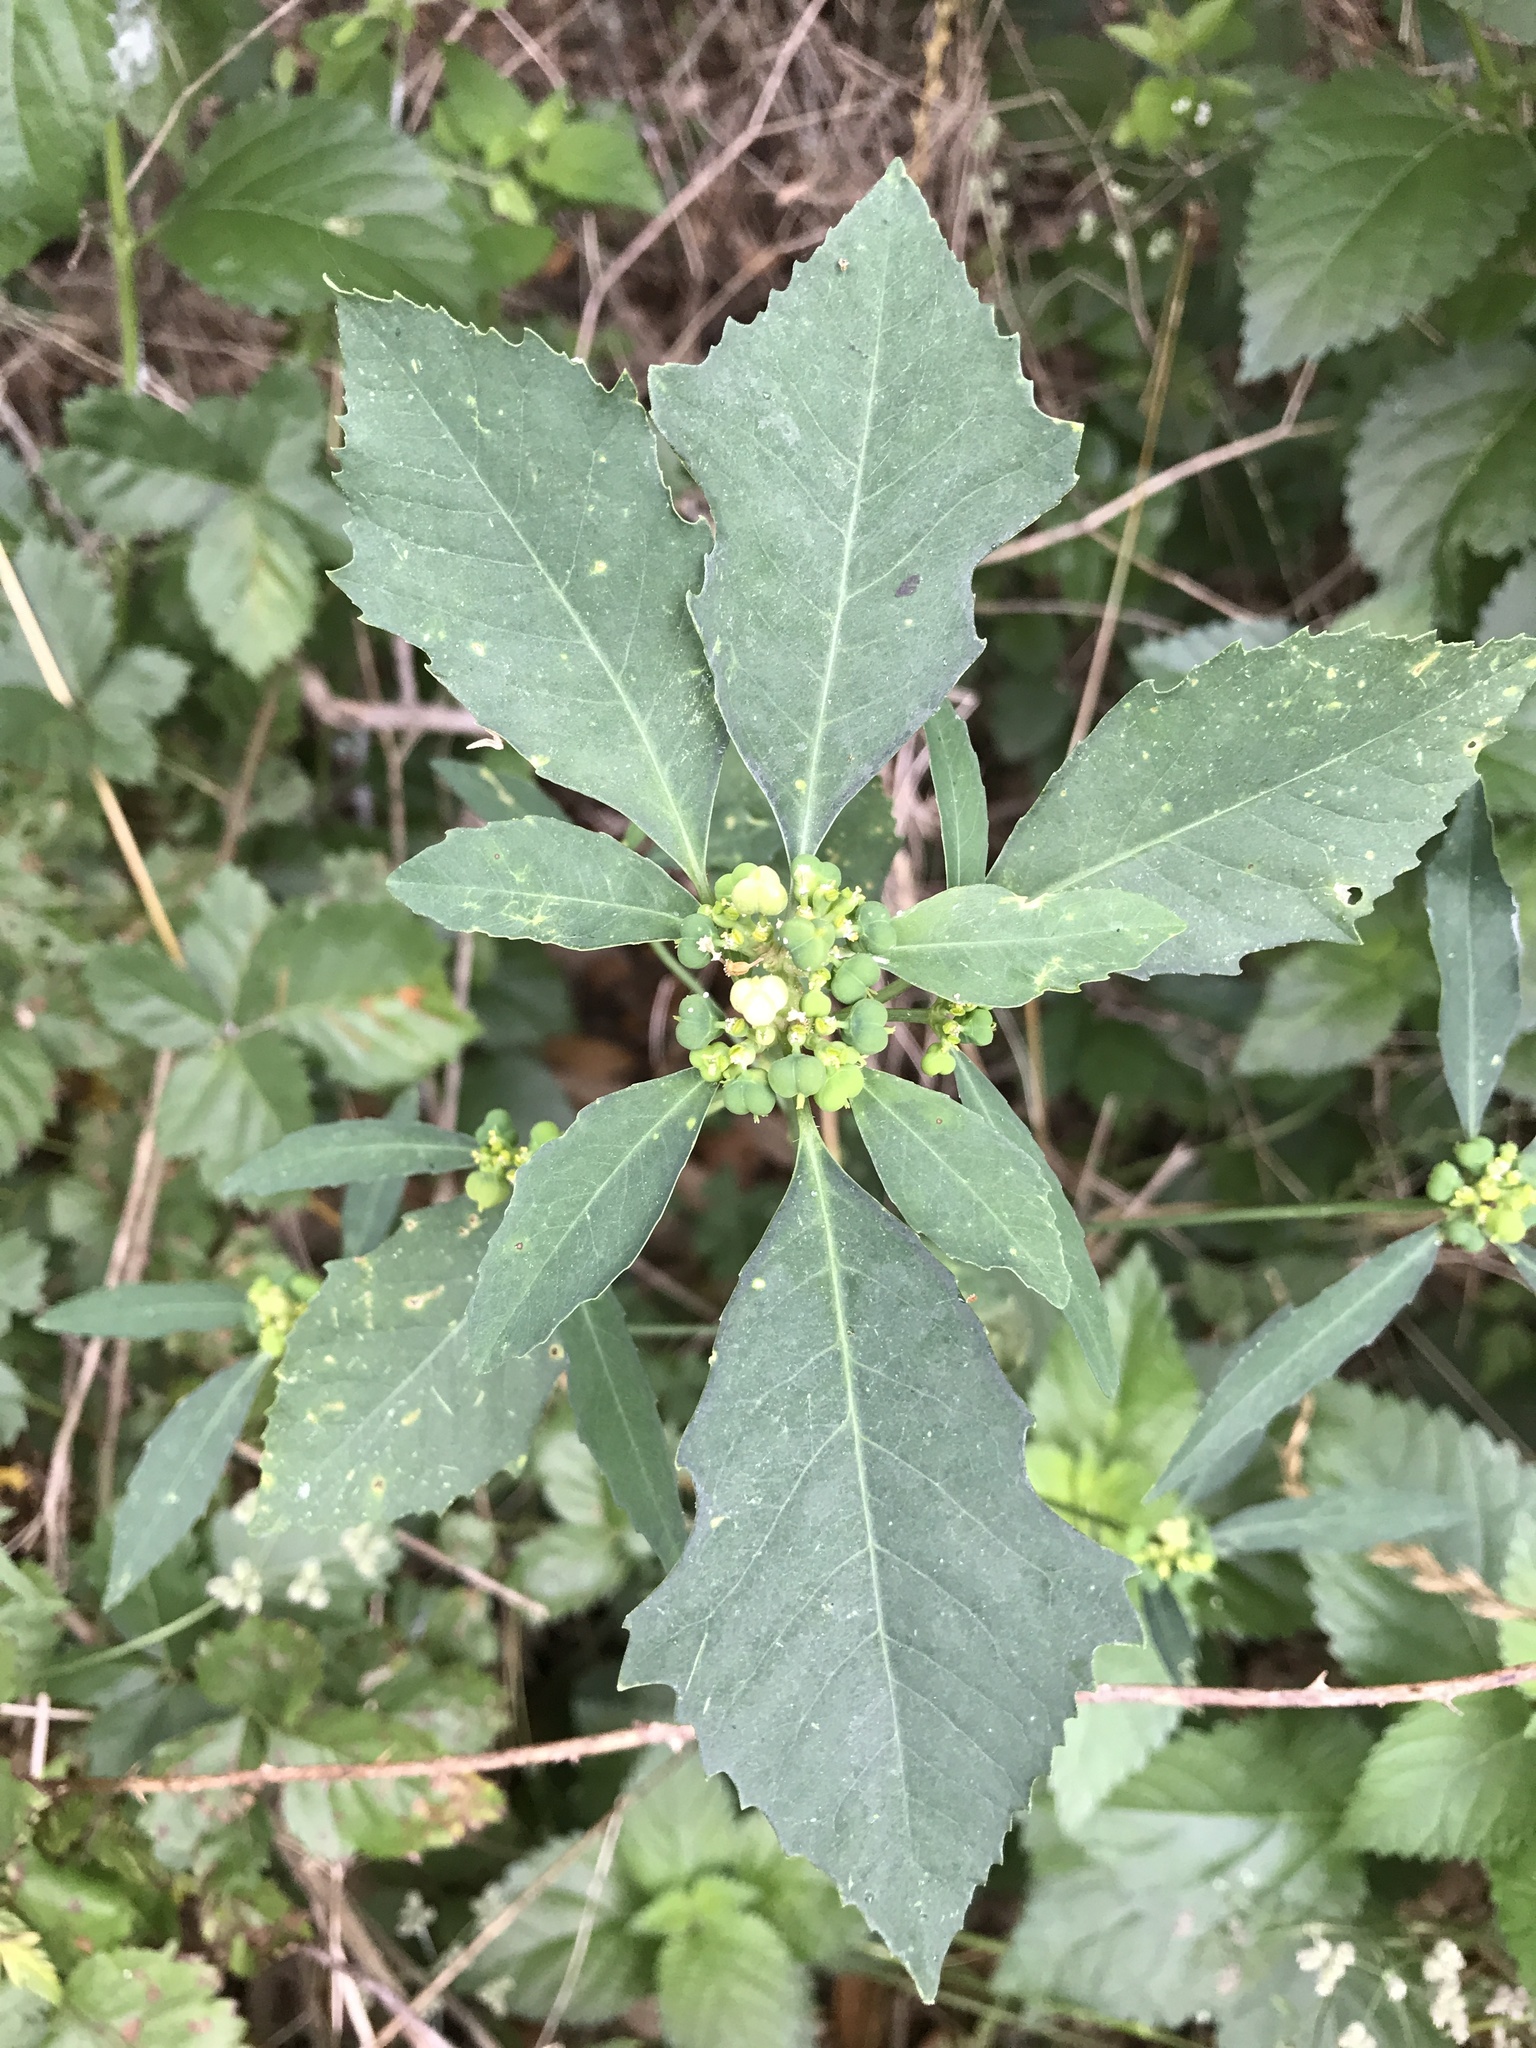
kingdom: Plantae
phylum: Tracheophyta
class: Magnoliopsida
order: Malpighiales
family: Euphorbiaceae
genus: Euphorbia
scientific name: Euphorbia heterophylla
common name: Mexican fireplant
